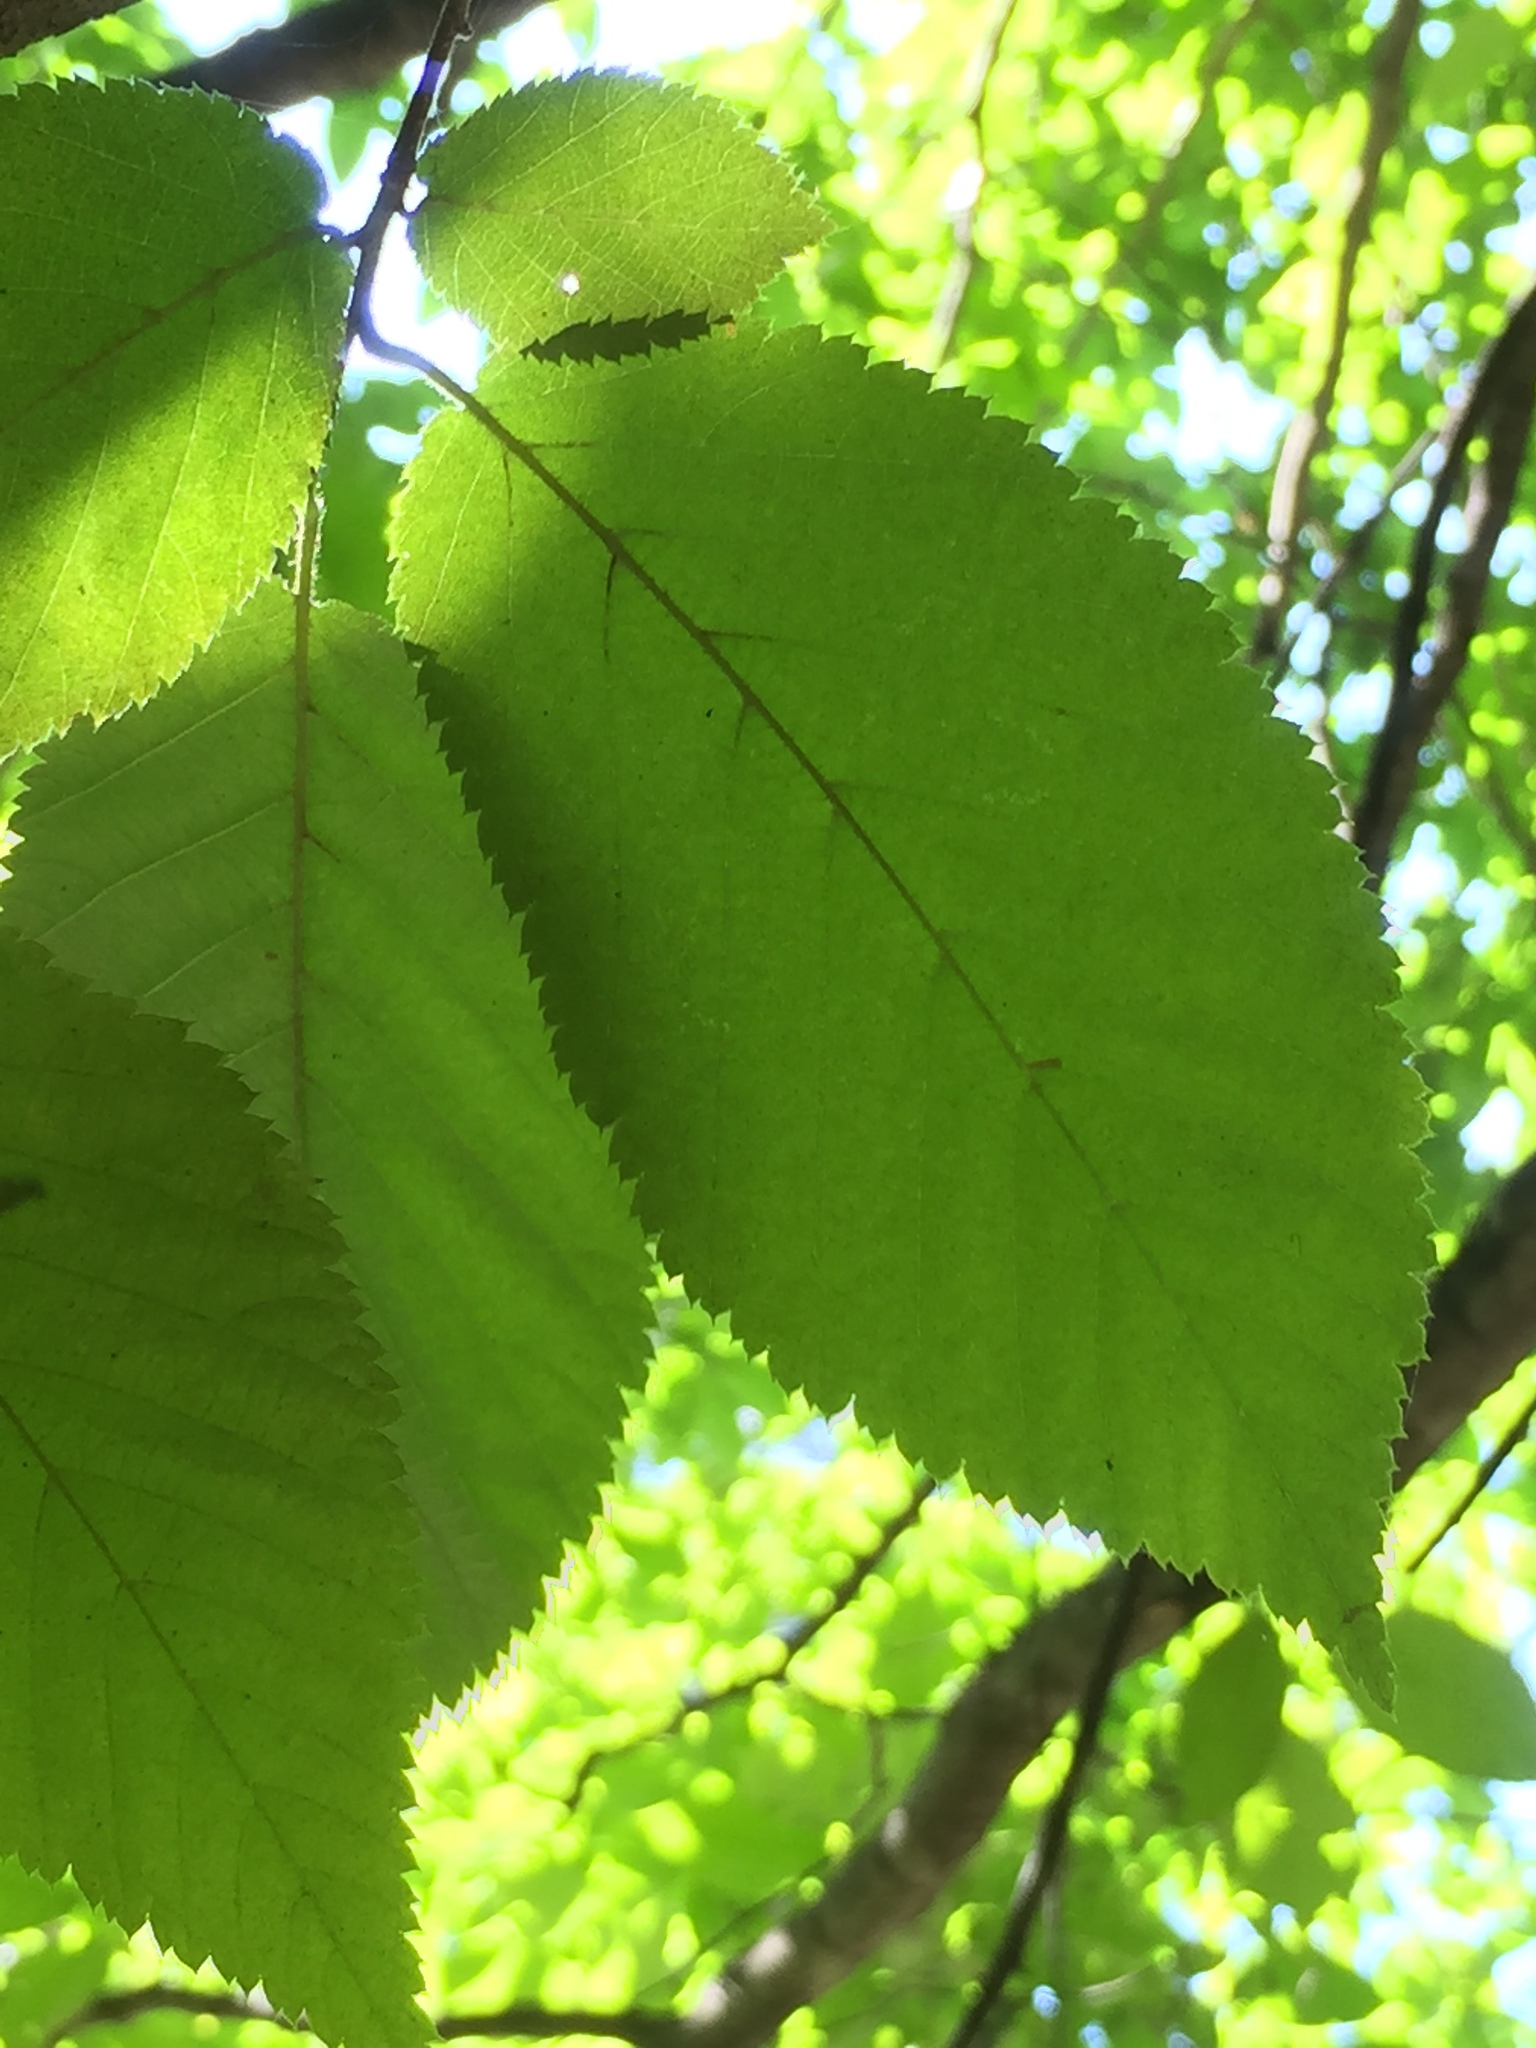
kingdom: Plantae
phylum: Tracheophyta
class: Magnoliopsida
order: Fagales
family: Betulaceae
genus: Ostrya
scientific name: Ostrya virginiana
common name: Ironwood
